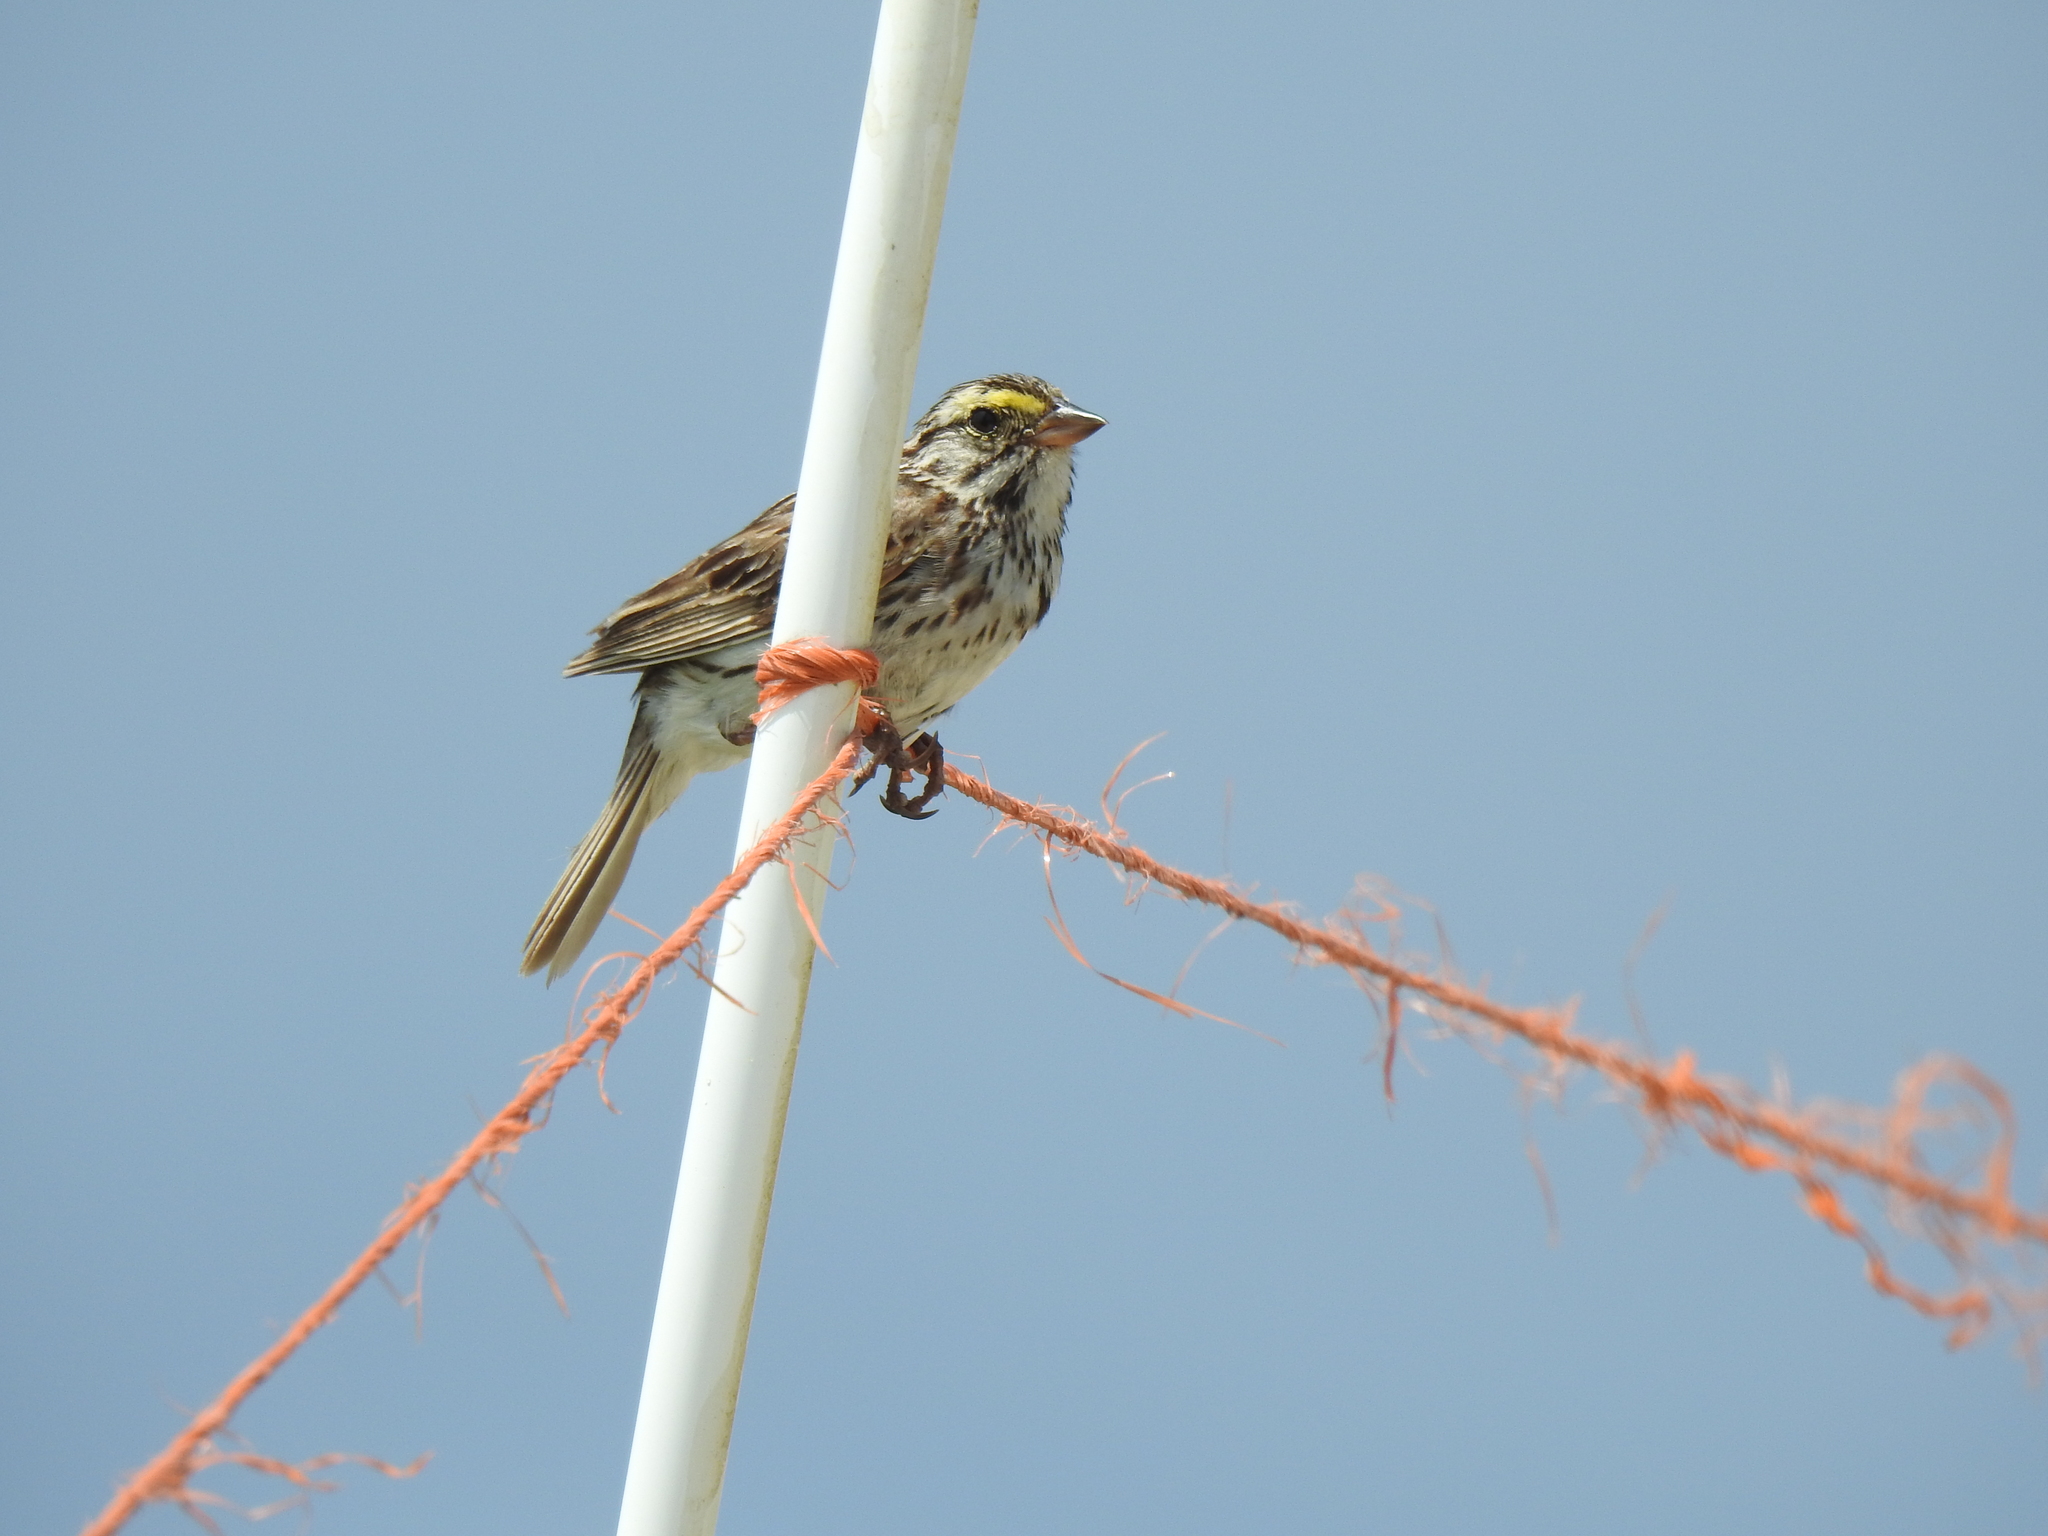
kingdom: Animalia
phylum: Chordata
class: Aves
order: Passeriformes
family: Passerellidae
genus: Passerculus
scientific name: Passerculus sandwichensis
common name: Savannah sparrow
